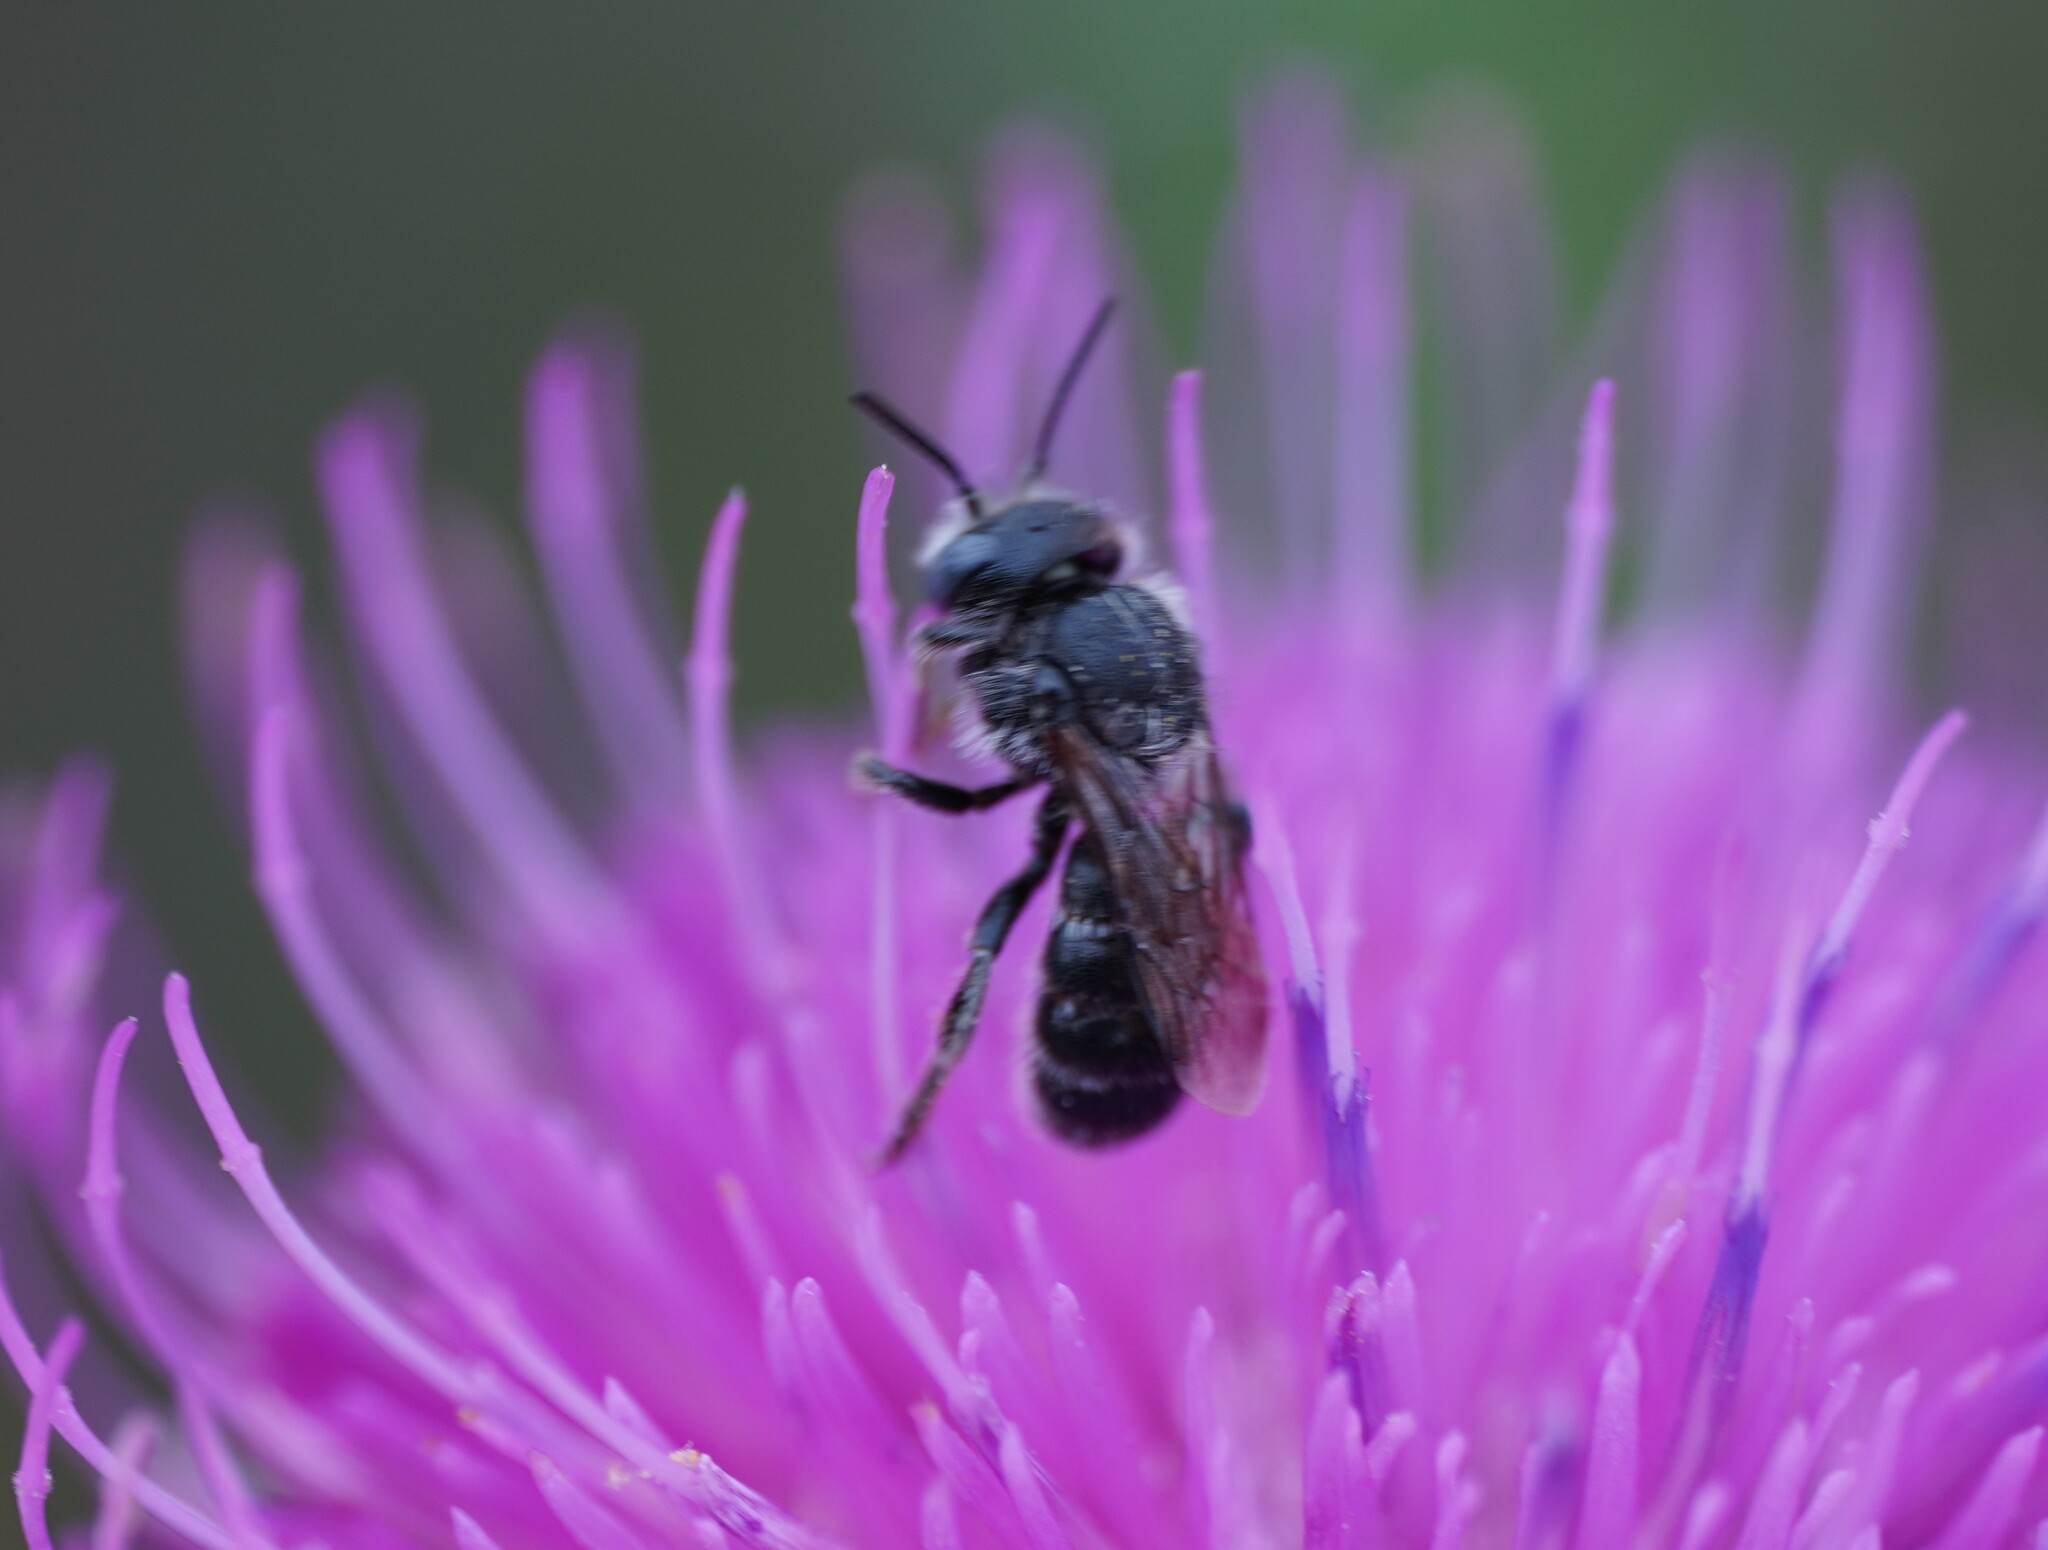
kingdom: Animalia
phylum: Arthropoda
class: Insecta
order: Hymenoptera
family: Megachilidae
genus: Osmia
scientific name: Osmia spinulosa
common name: Spined mason bee
